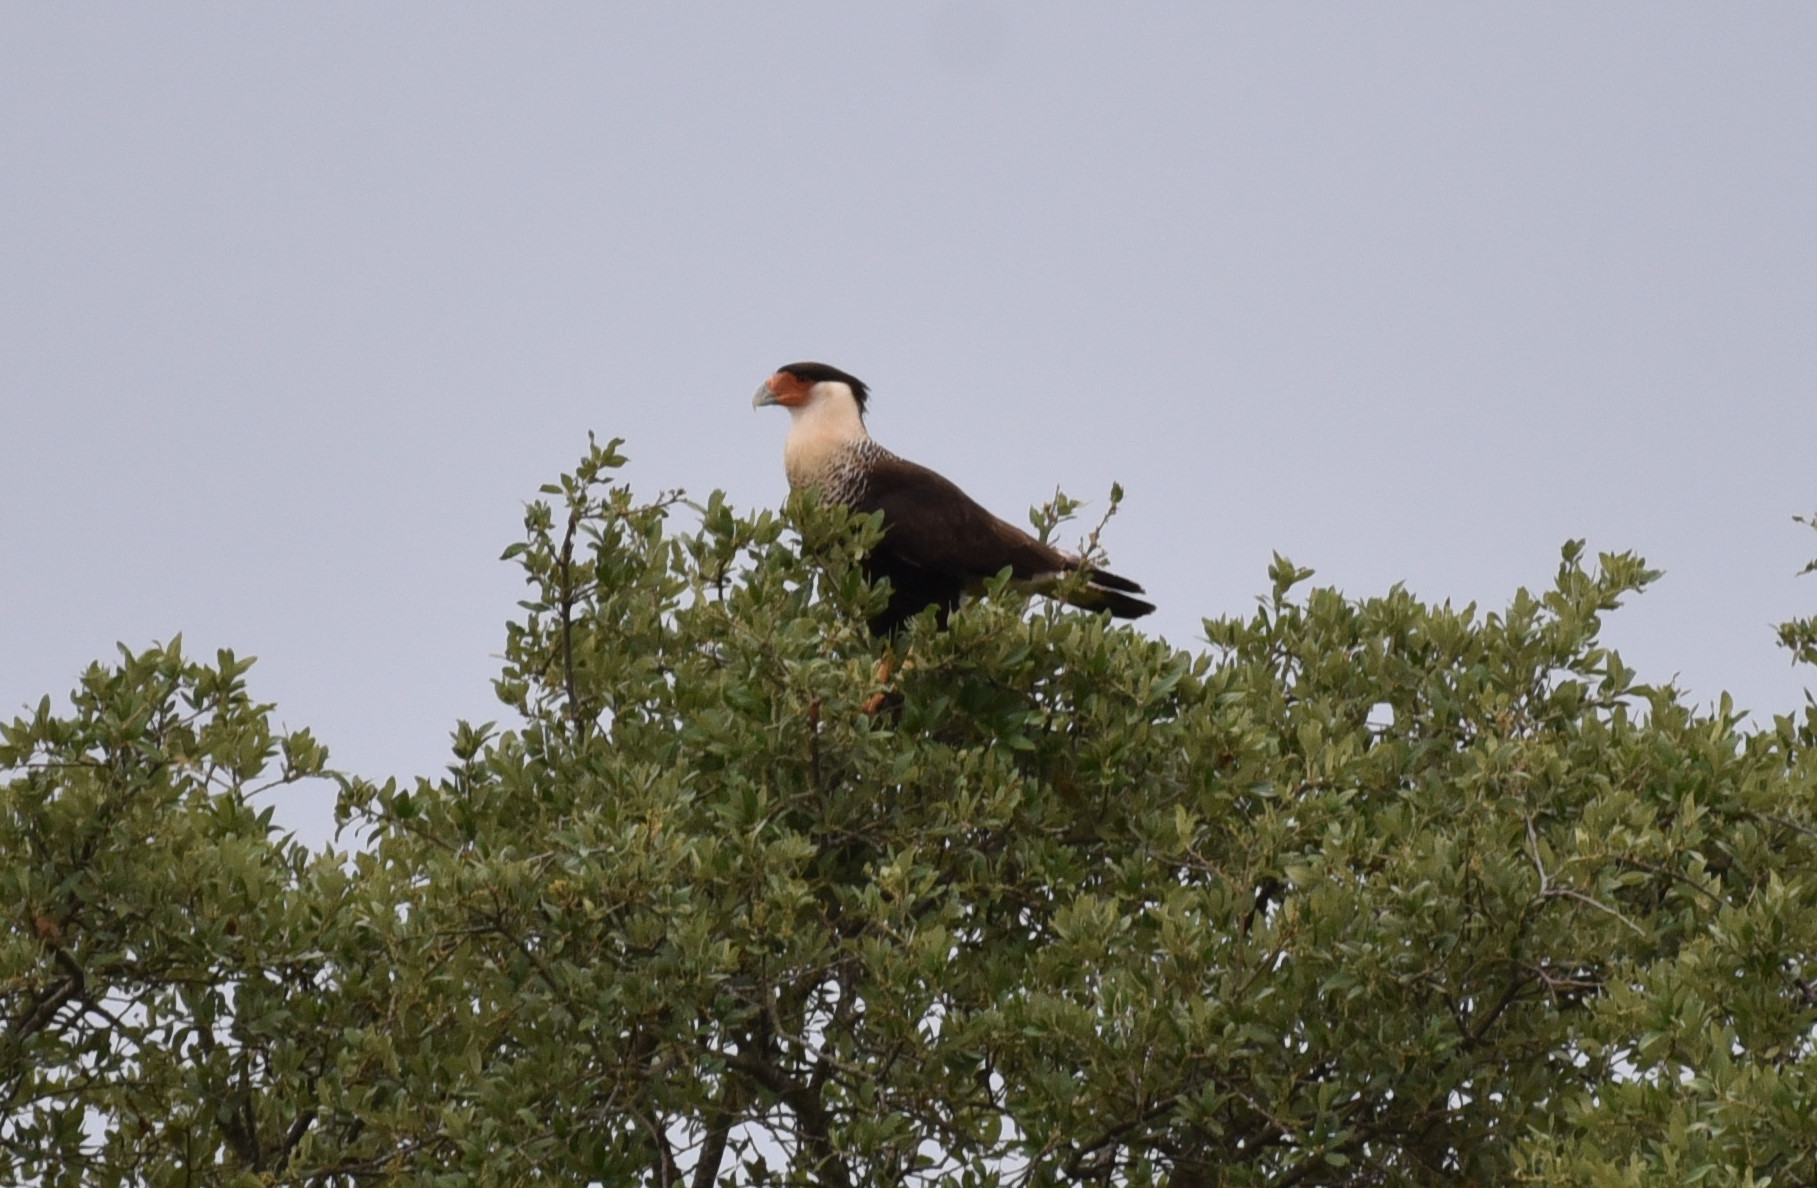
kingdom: Animalia
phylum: Chordata
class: Aves
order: Falconiformes
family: Falconidae
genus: Caracara
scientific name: Caracara plancus
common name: Southern caracara
